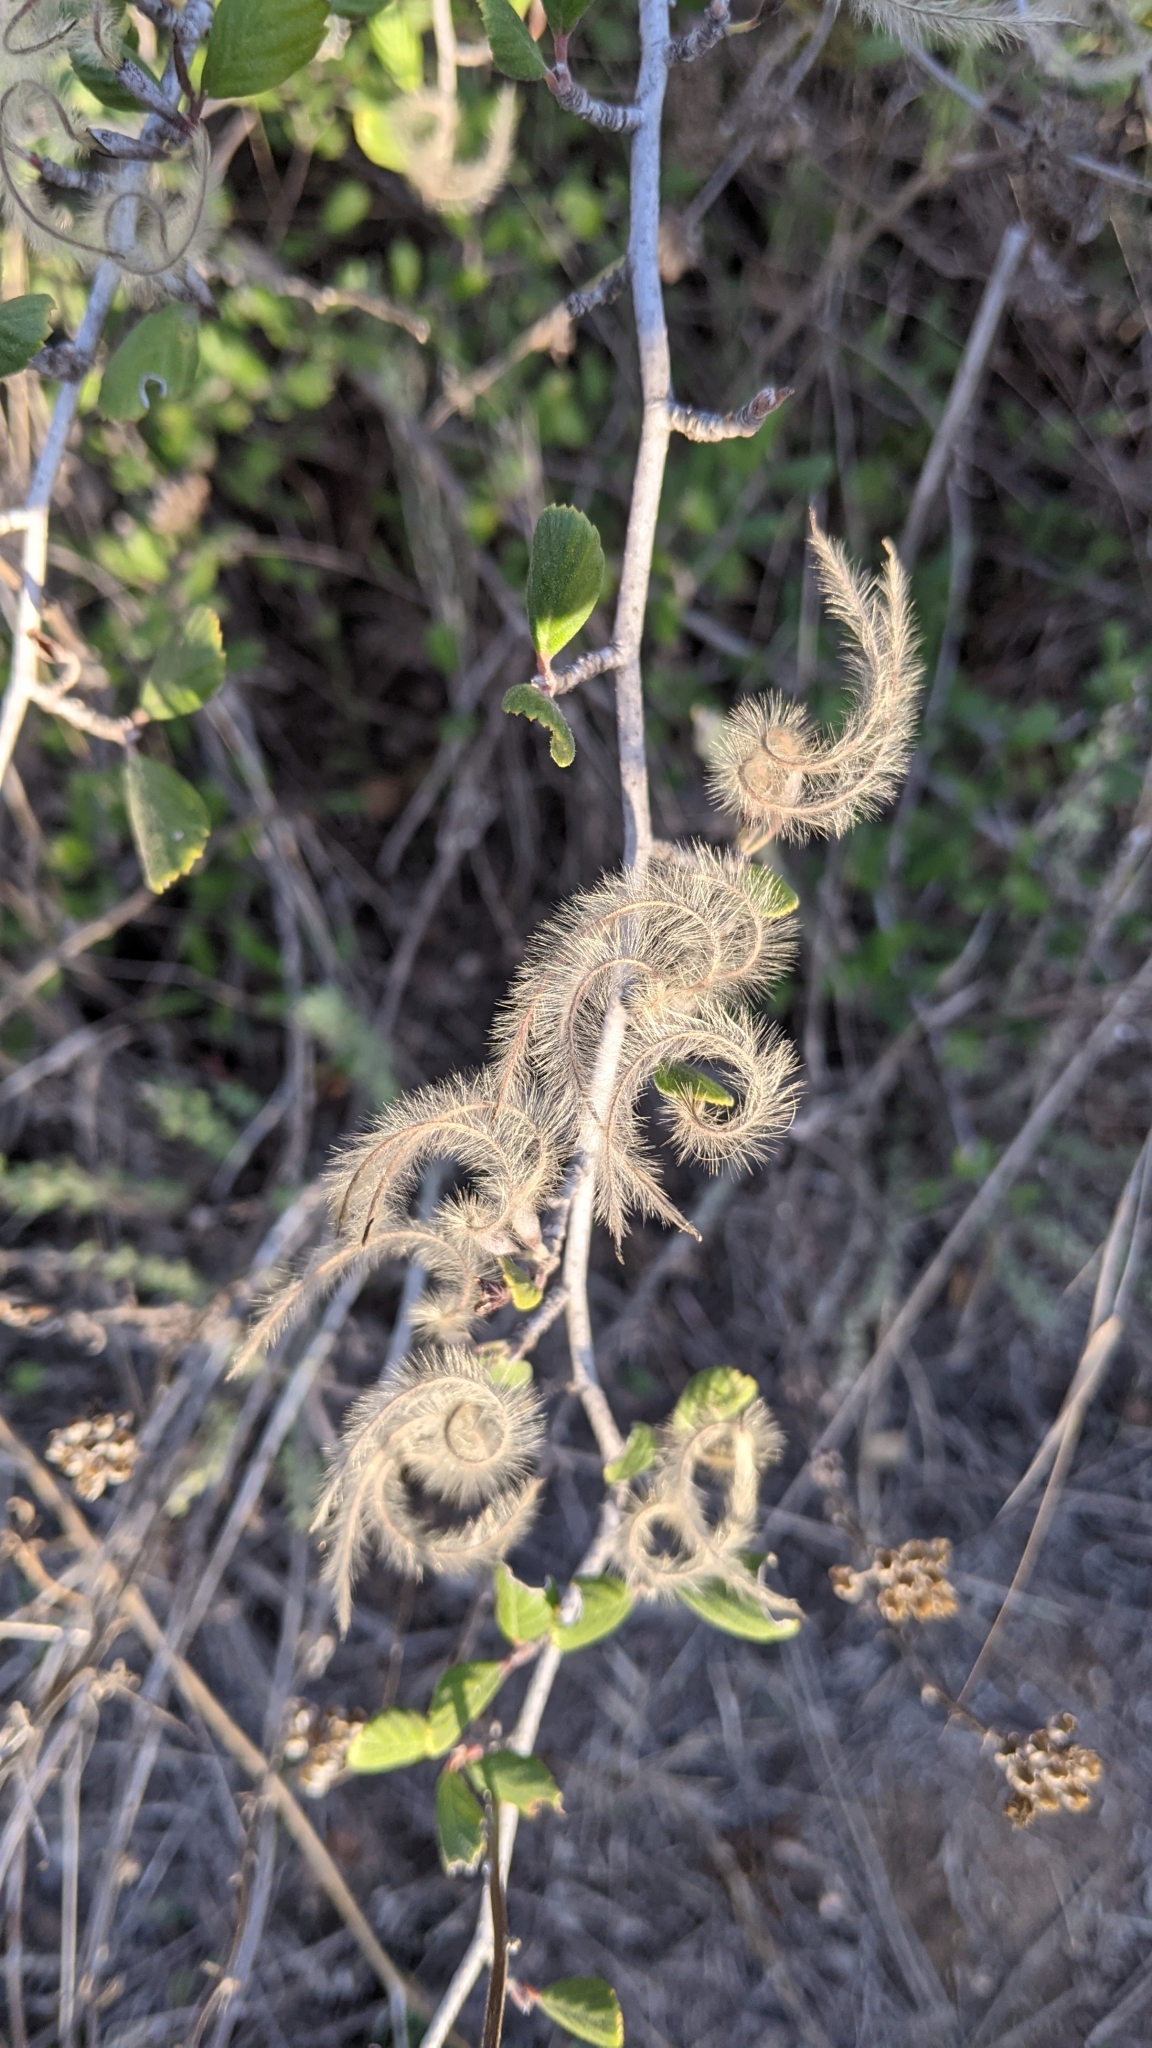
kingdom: Plantae
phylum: Tracheophyta
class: Magnoliopsida
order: Rosales
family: Rosaceae
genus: Cercocarpus
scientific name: Cercocarpus betuloides
